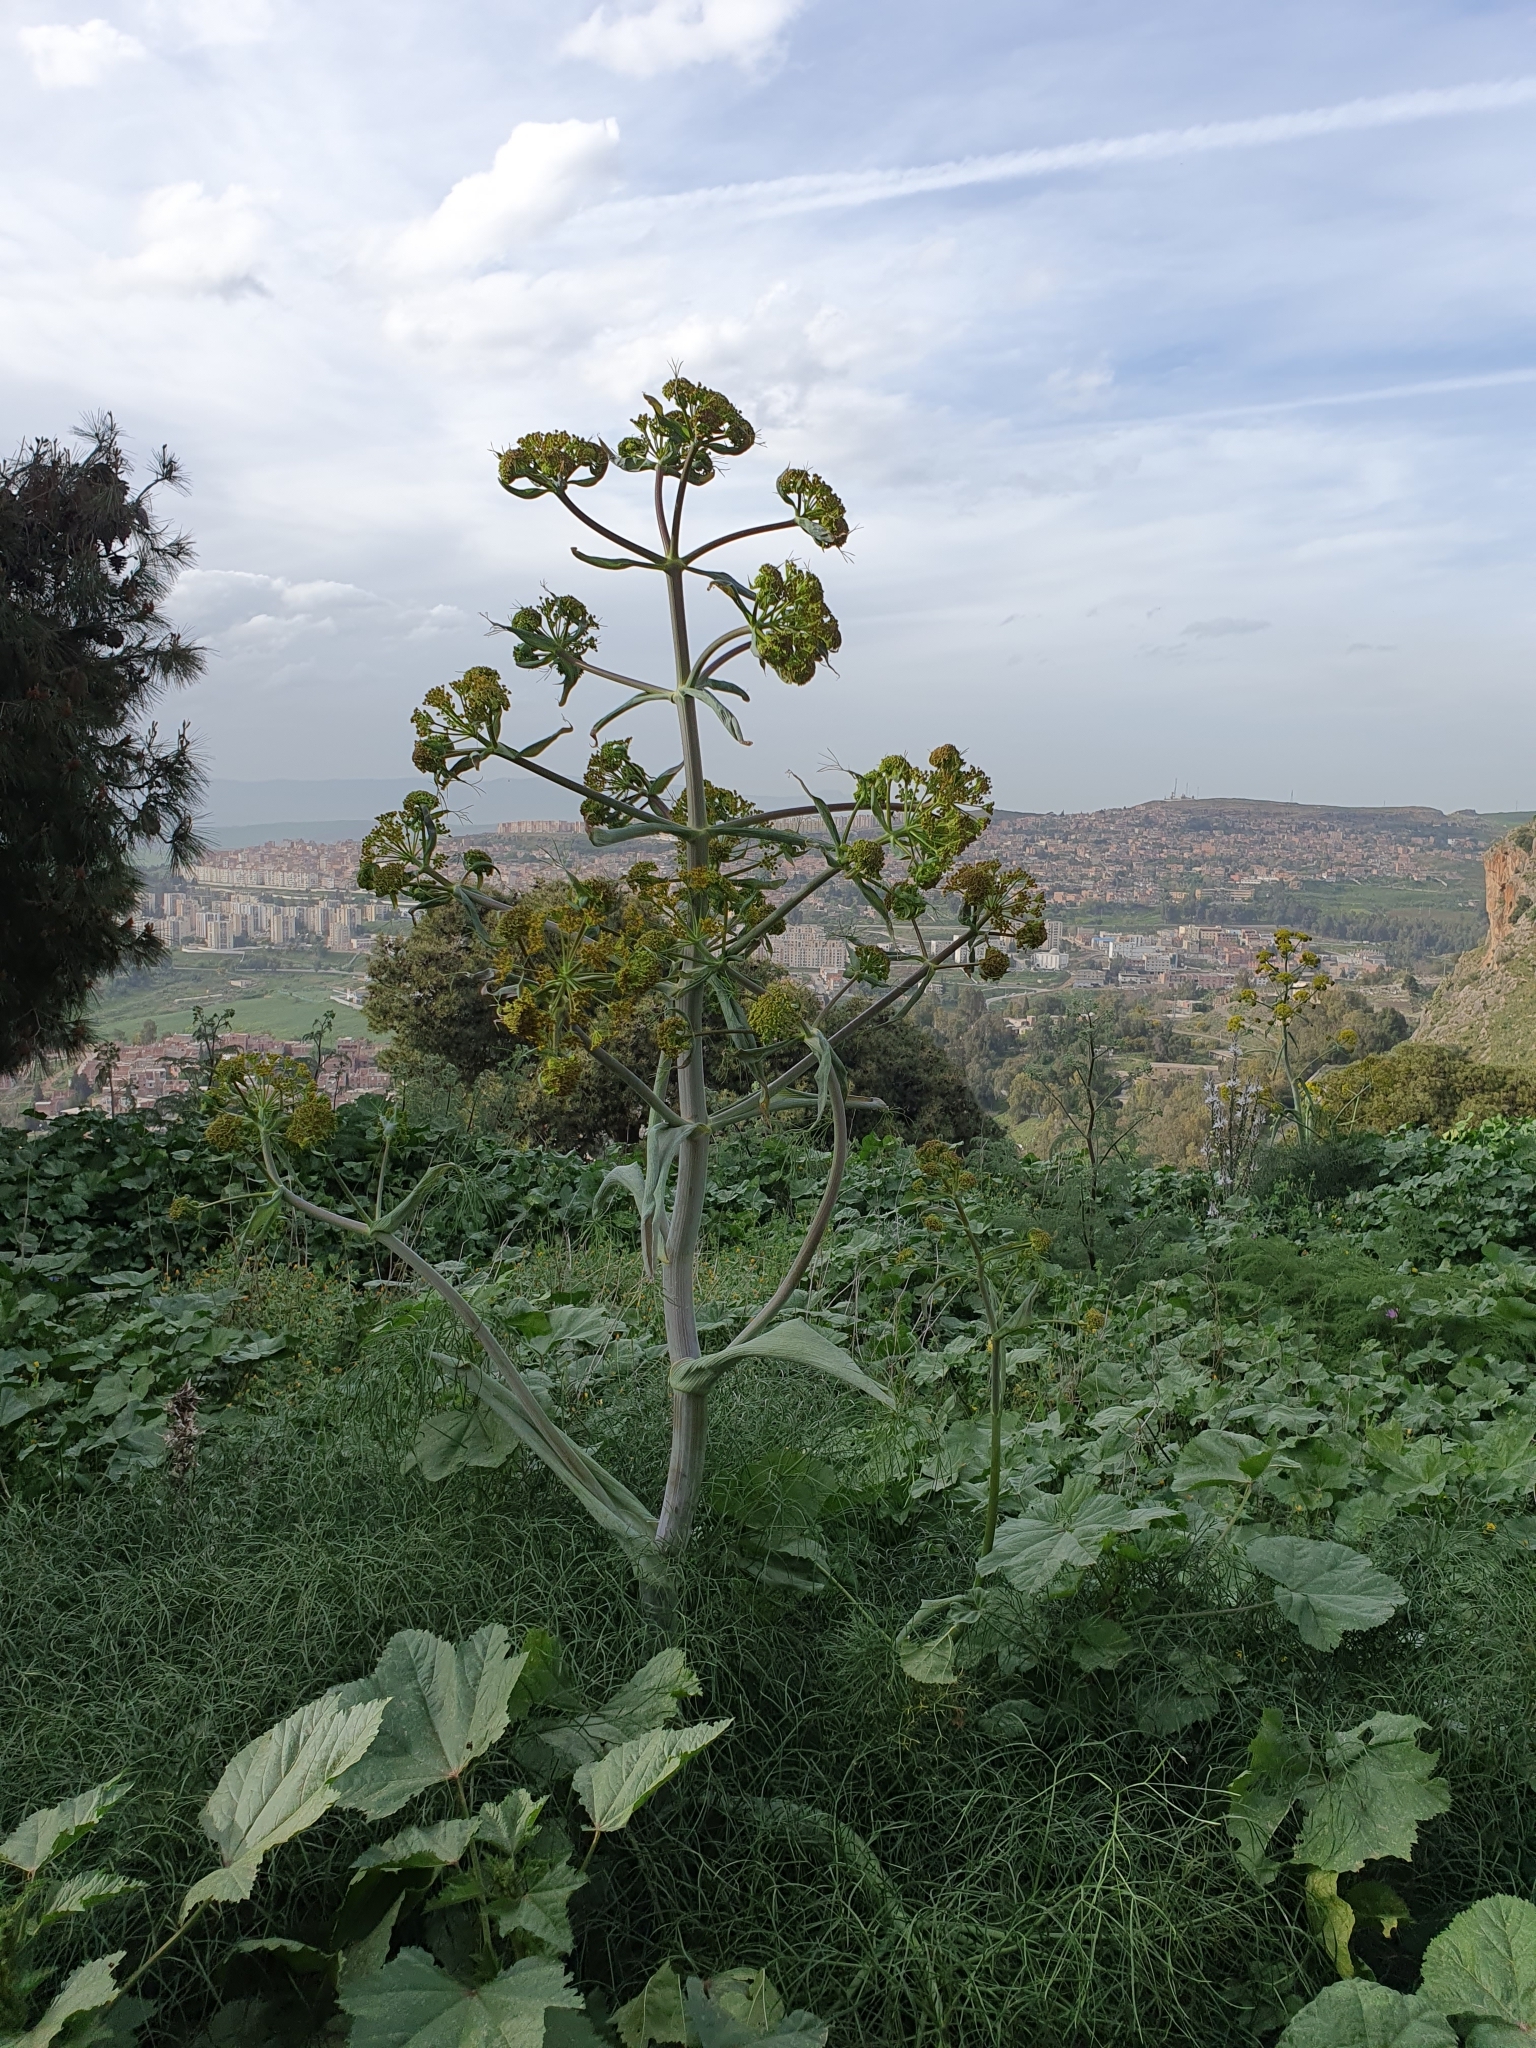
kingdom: Plantae
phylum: Tracheophyta
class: Magnoliopsida
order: Apiales
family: Apiaceae
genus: Ferula
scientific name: Ferula communis
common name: Giant fennel
